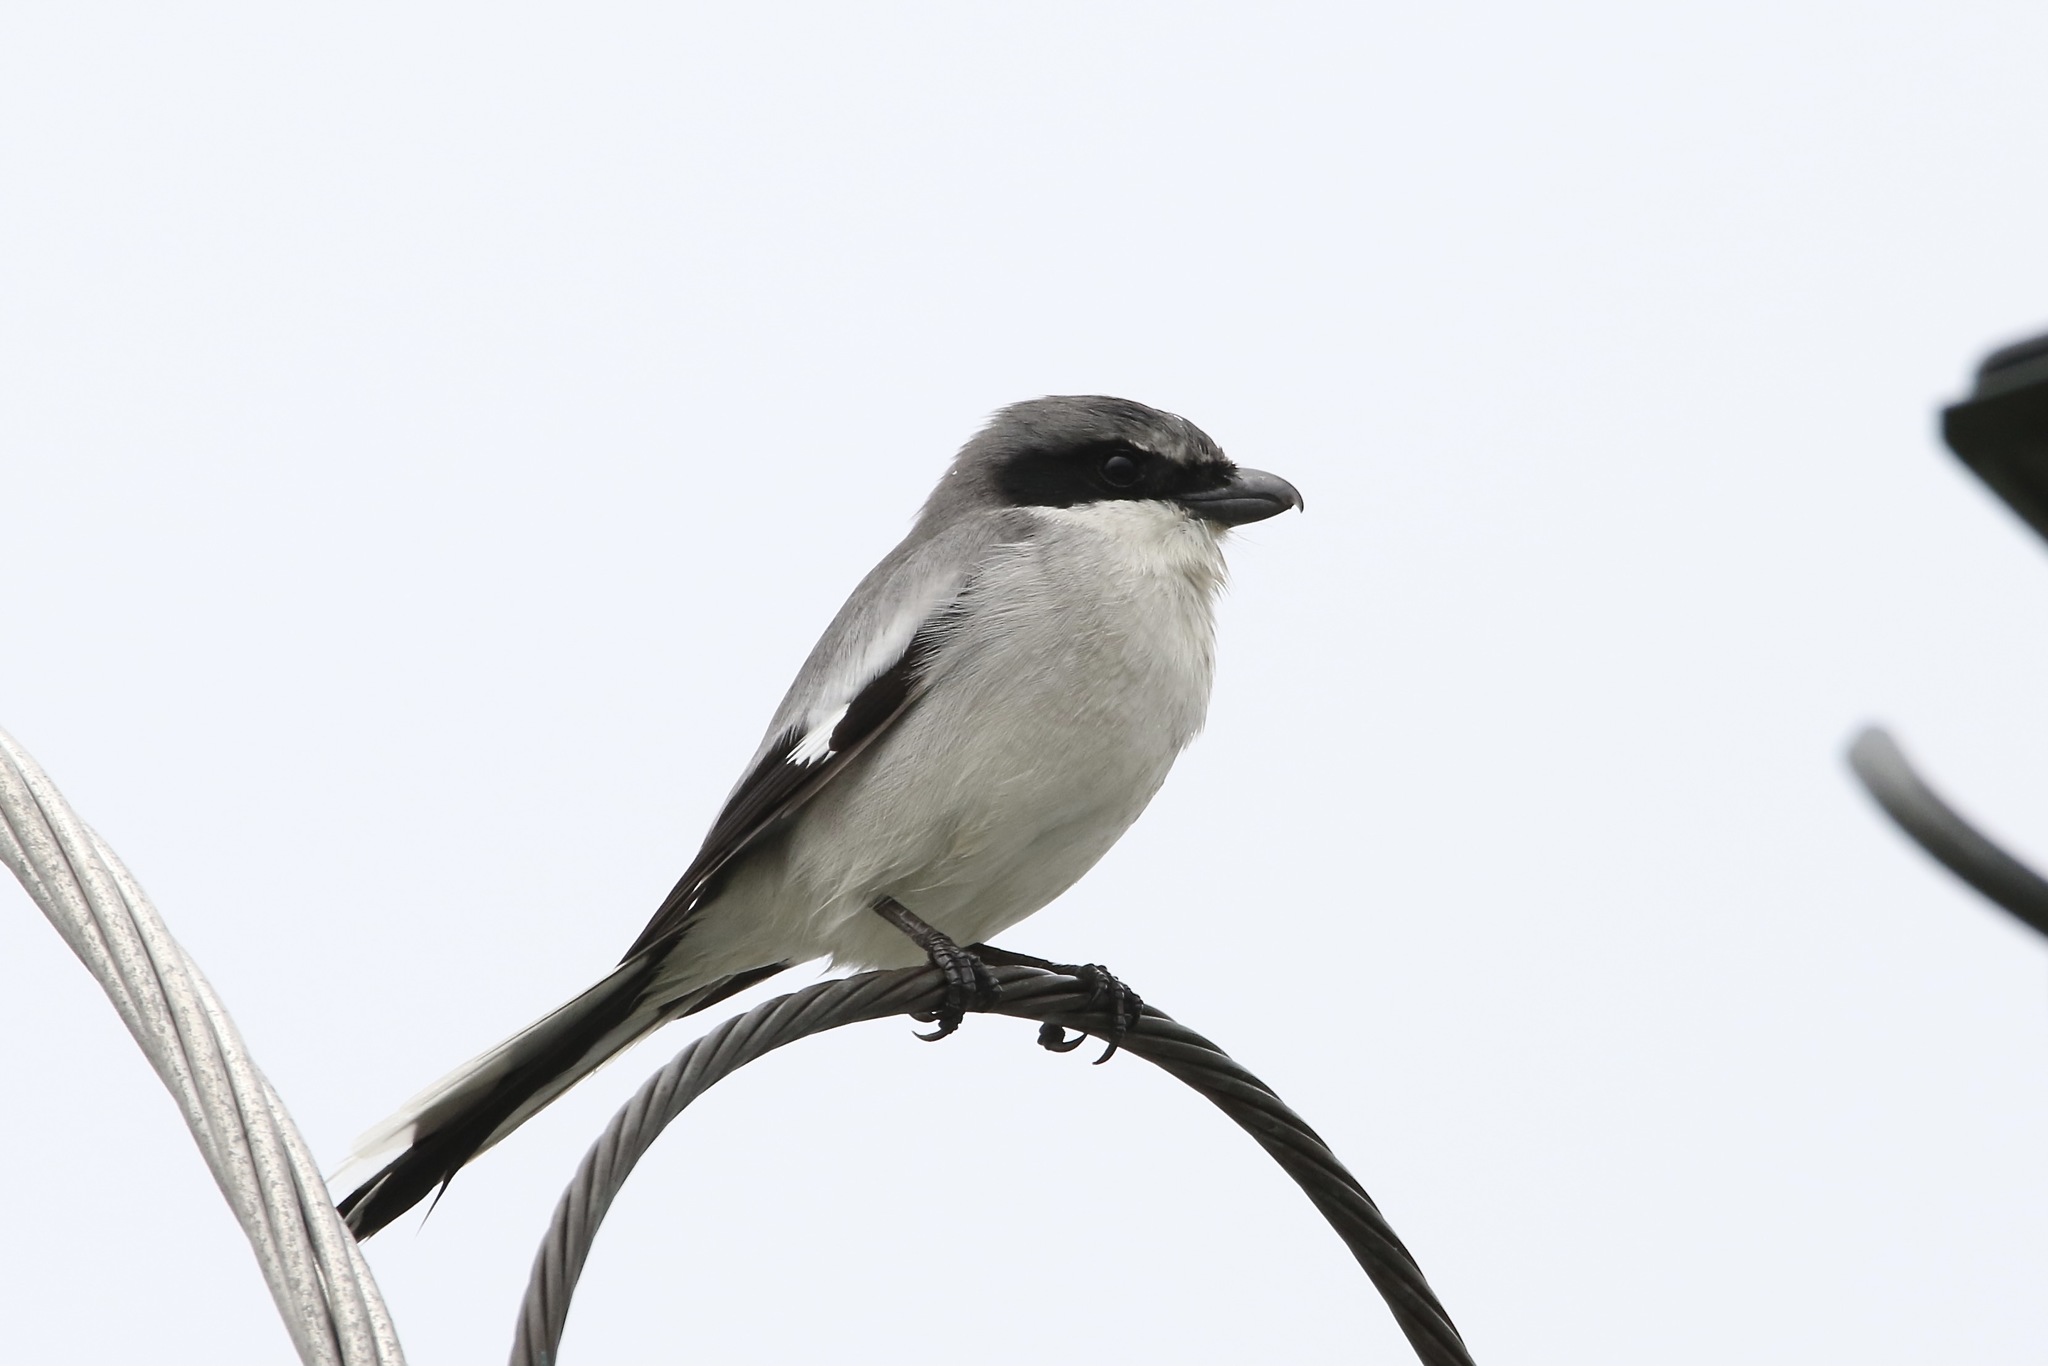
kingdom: Animalia
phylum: Chordata
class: Aves
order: Passeriformes
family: Laniidae
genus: Lanius
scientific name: Lanius ludovicianus
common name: Loggerhead shrike
